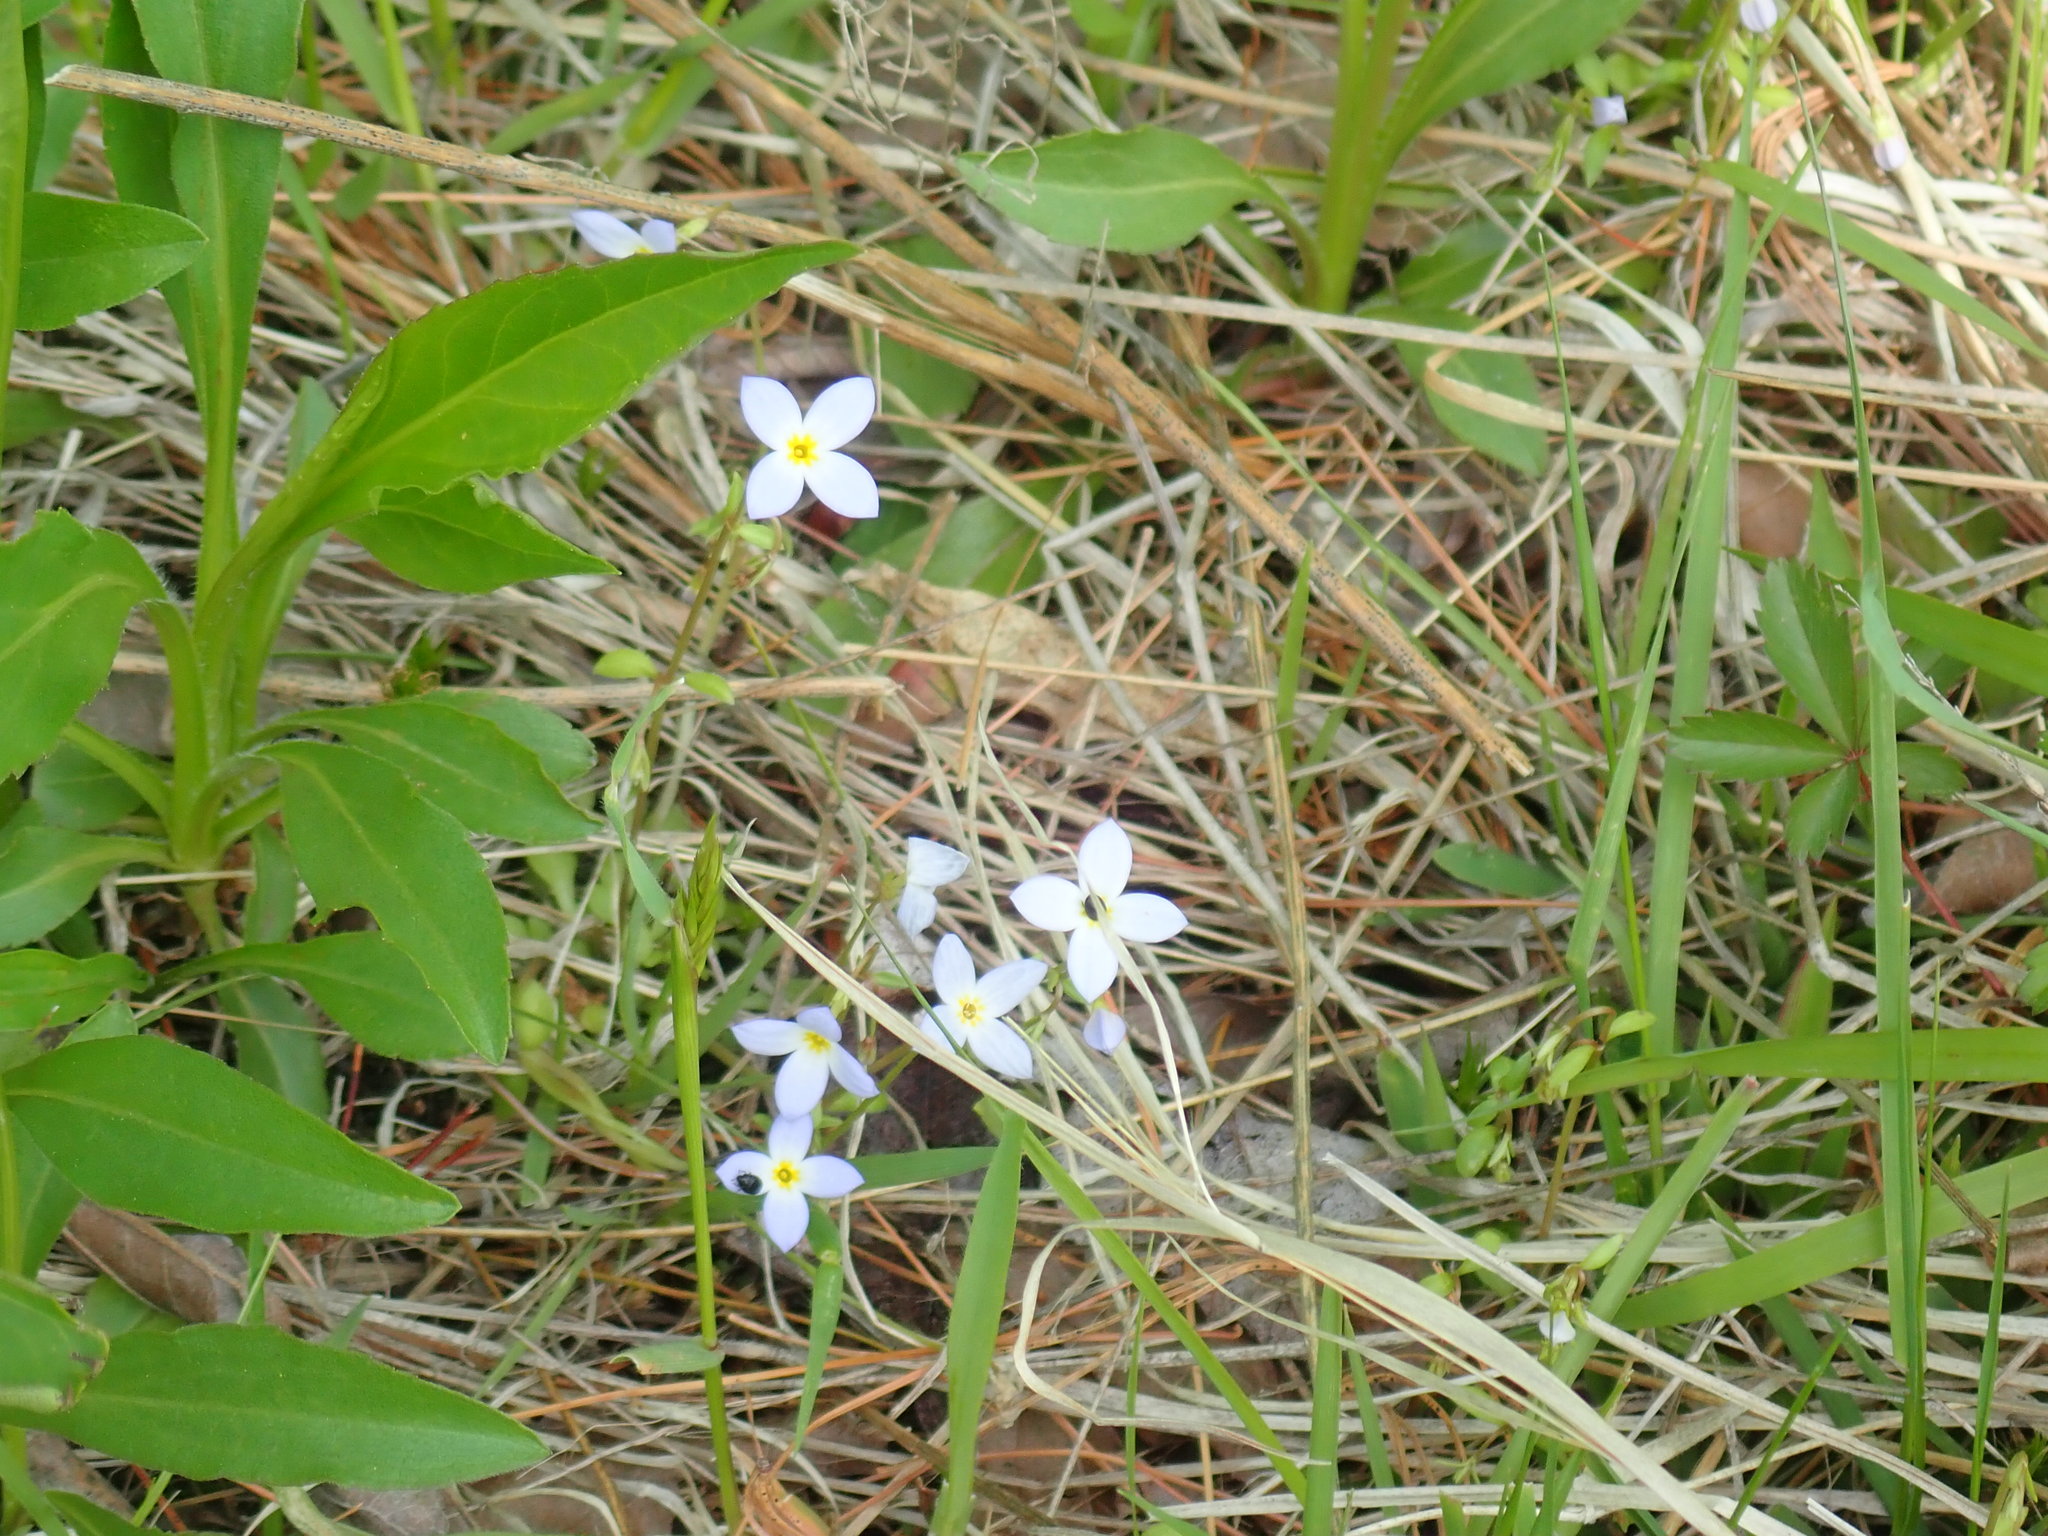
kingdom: Plantae
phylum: Tracheophyta
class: Magnoliopsida
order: Gentianales
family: Rubiaceae
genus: Houstonia
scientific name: Houstonia caerulea
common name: Bluets
